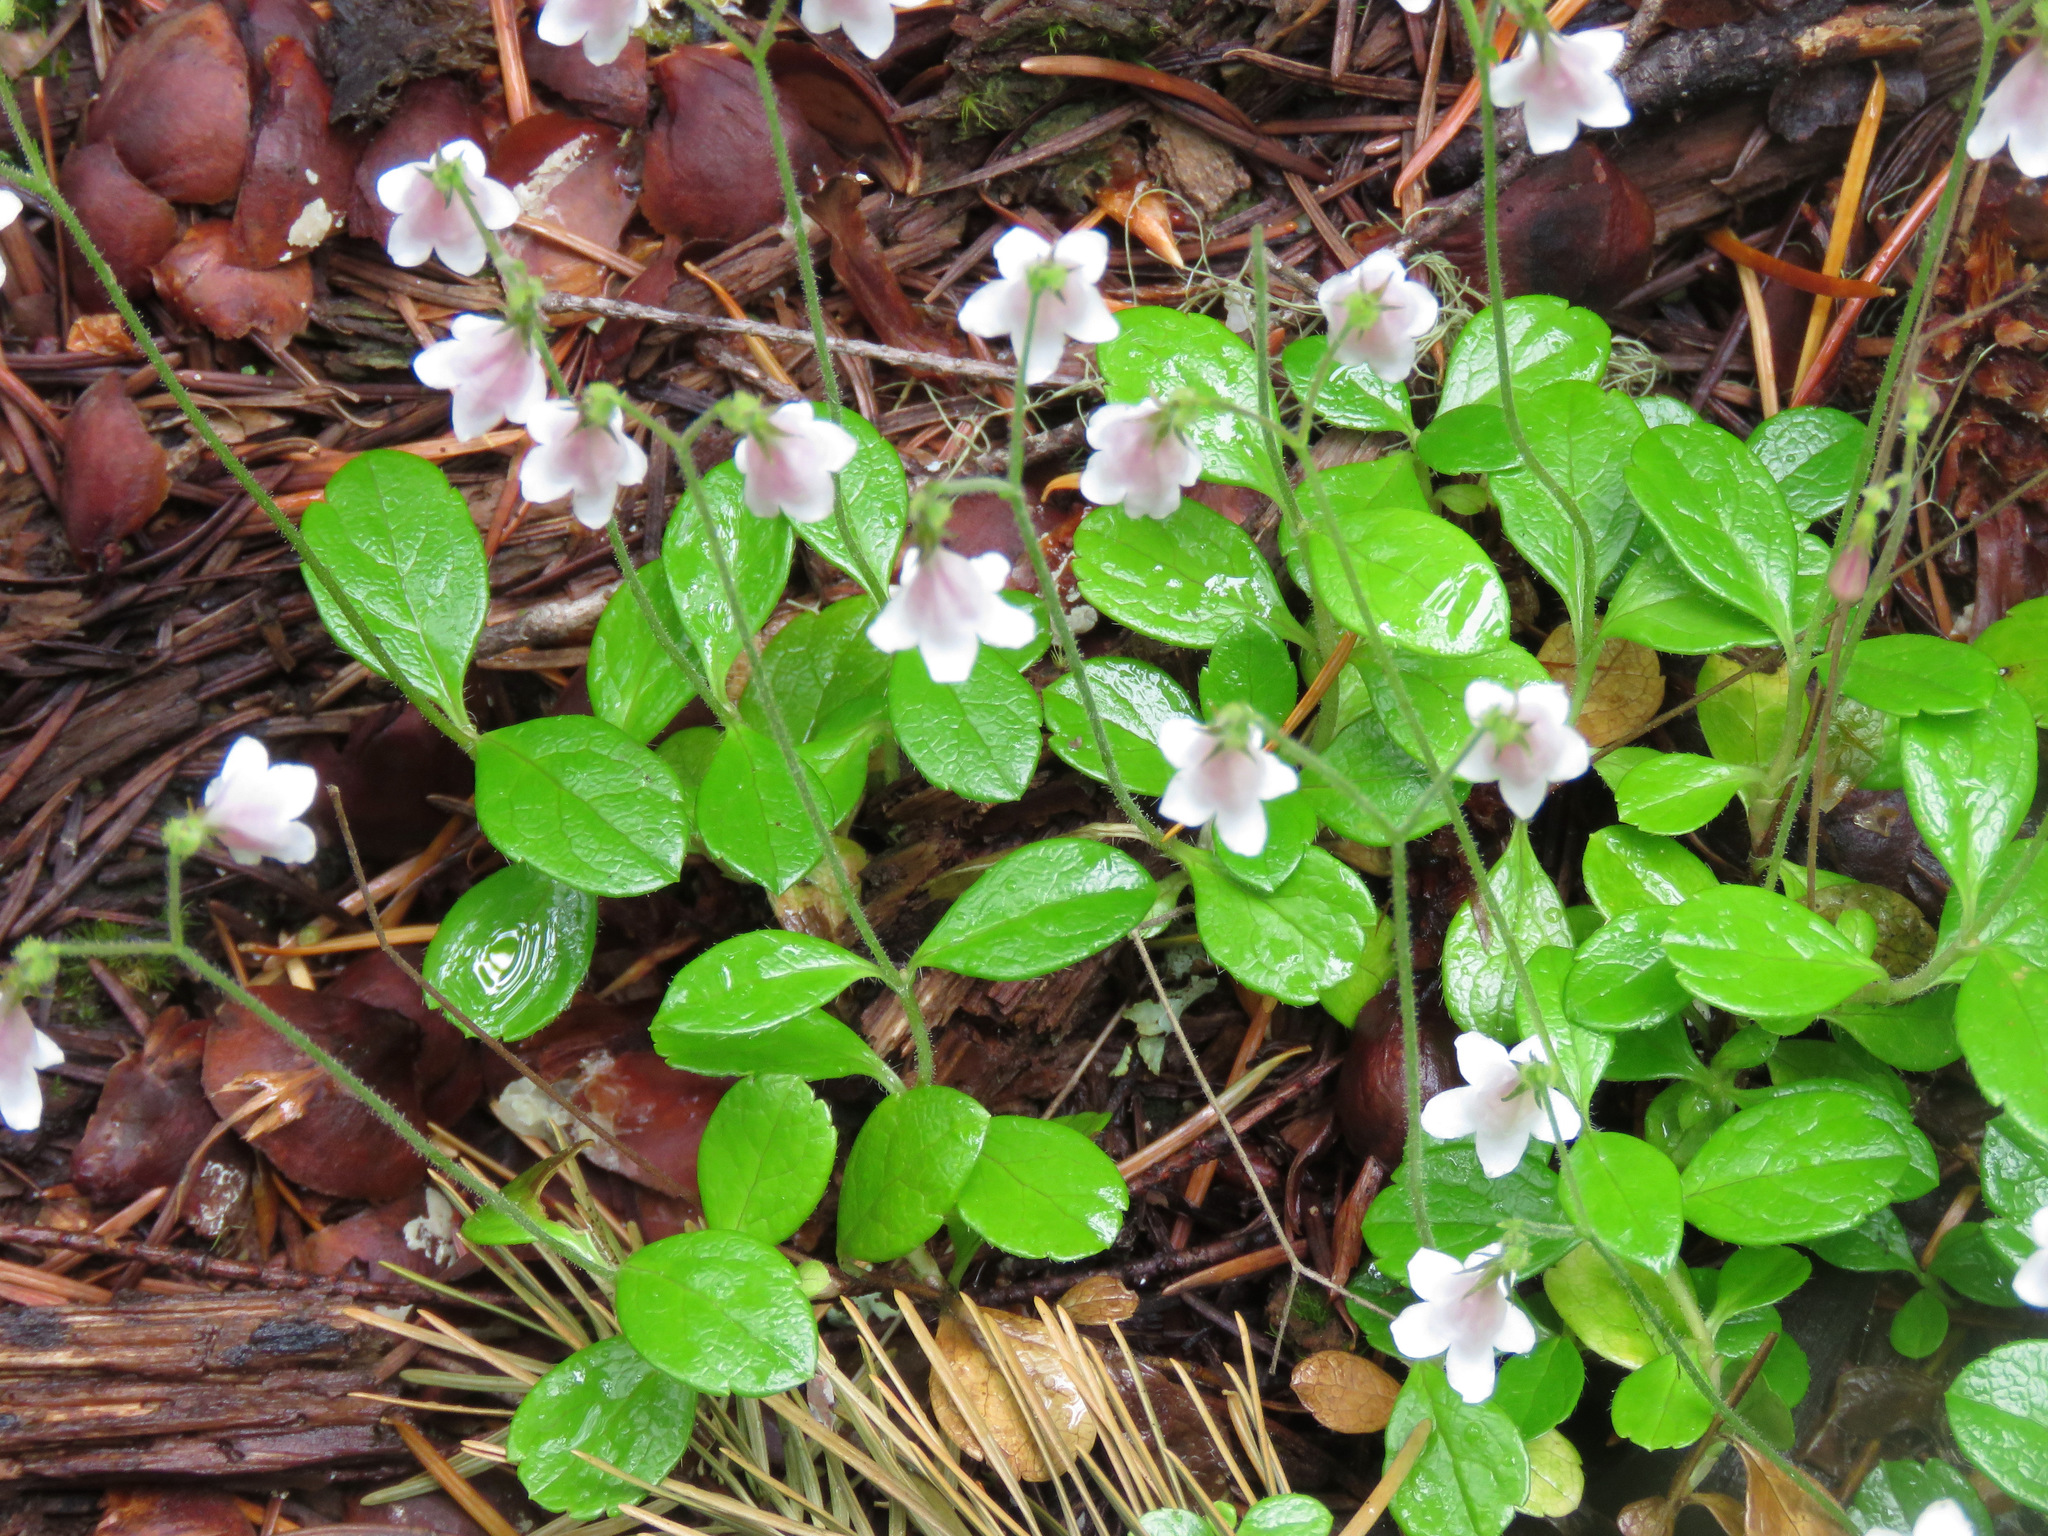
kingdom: Plantae
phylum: Tracheophyta
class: Magnoliopsida
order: Dipsacales
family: Caprifoliaceae
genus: Linnaea
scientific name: Linnaea borealis
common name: Twinflower
